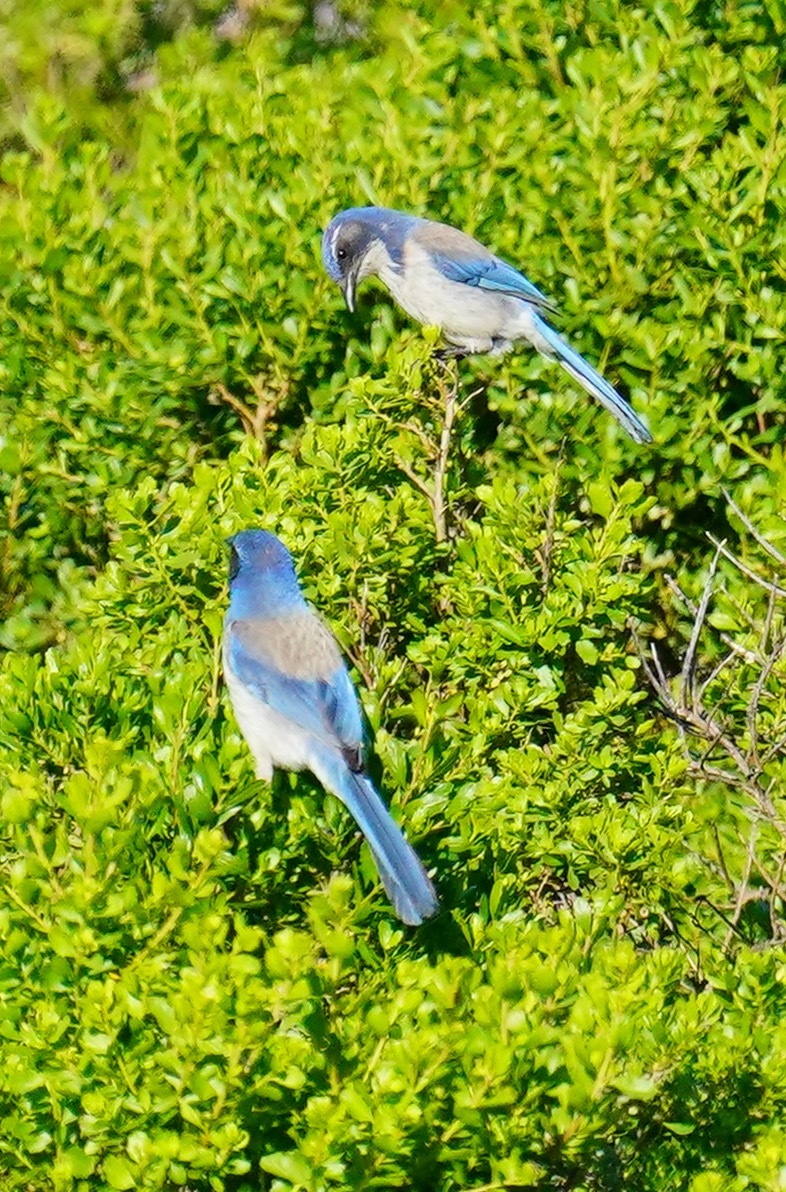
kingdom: Animalia
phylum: Chordata
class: Aves
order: Passeriformes
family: Corvidae
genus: Aphelocoma
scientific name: Aphelocoma californica
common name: California scrub-jay
